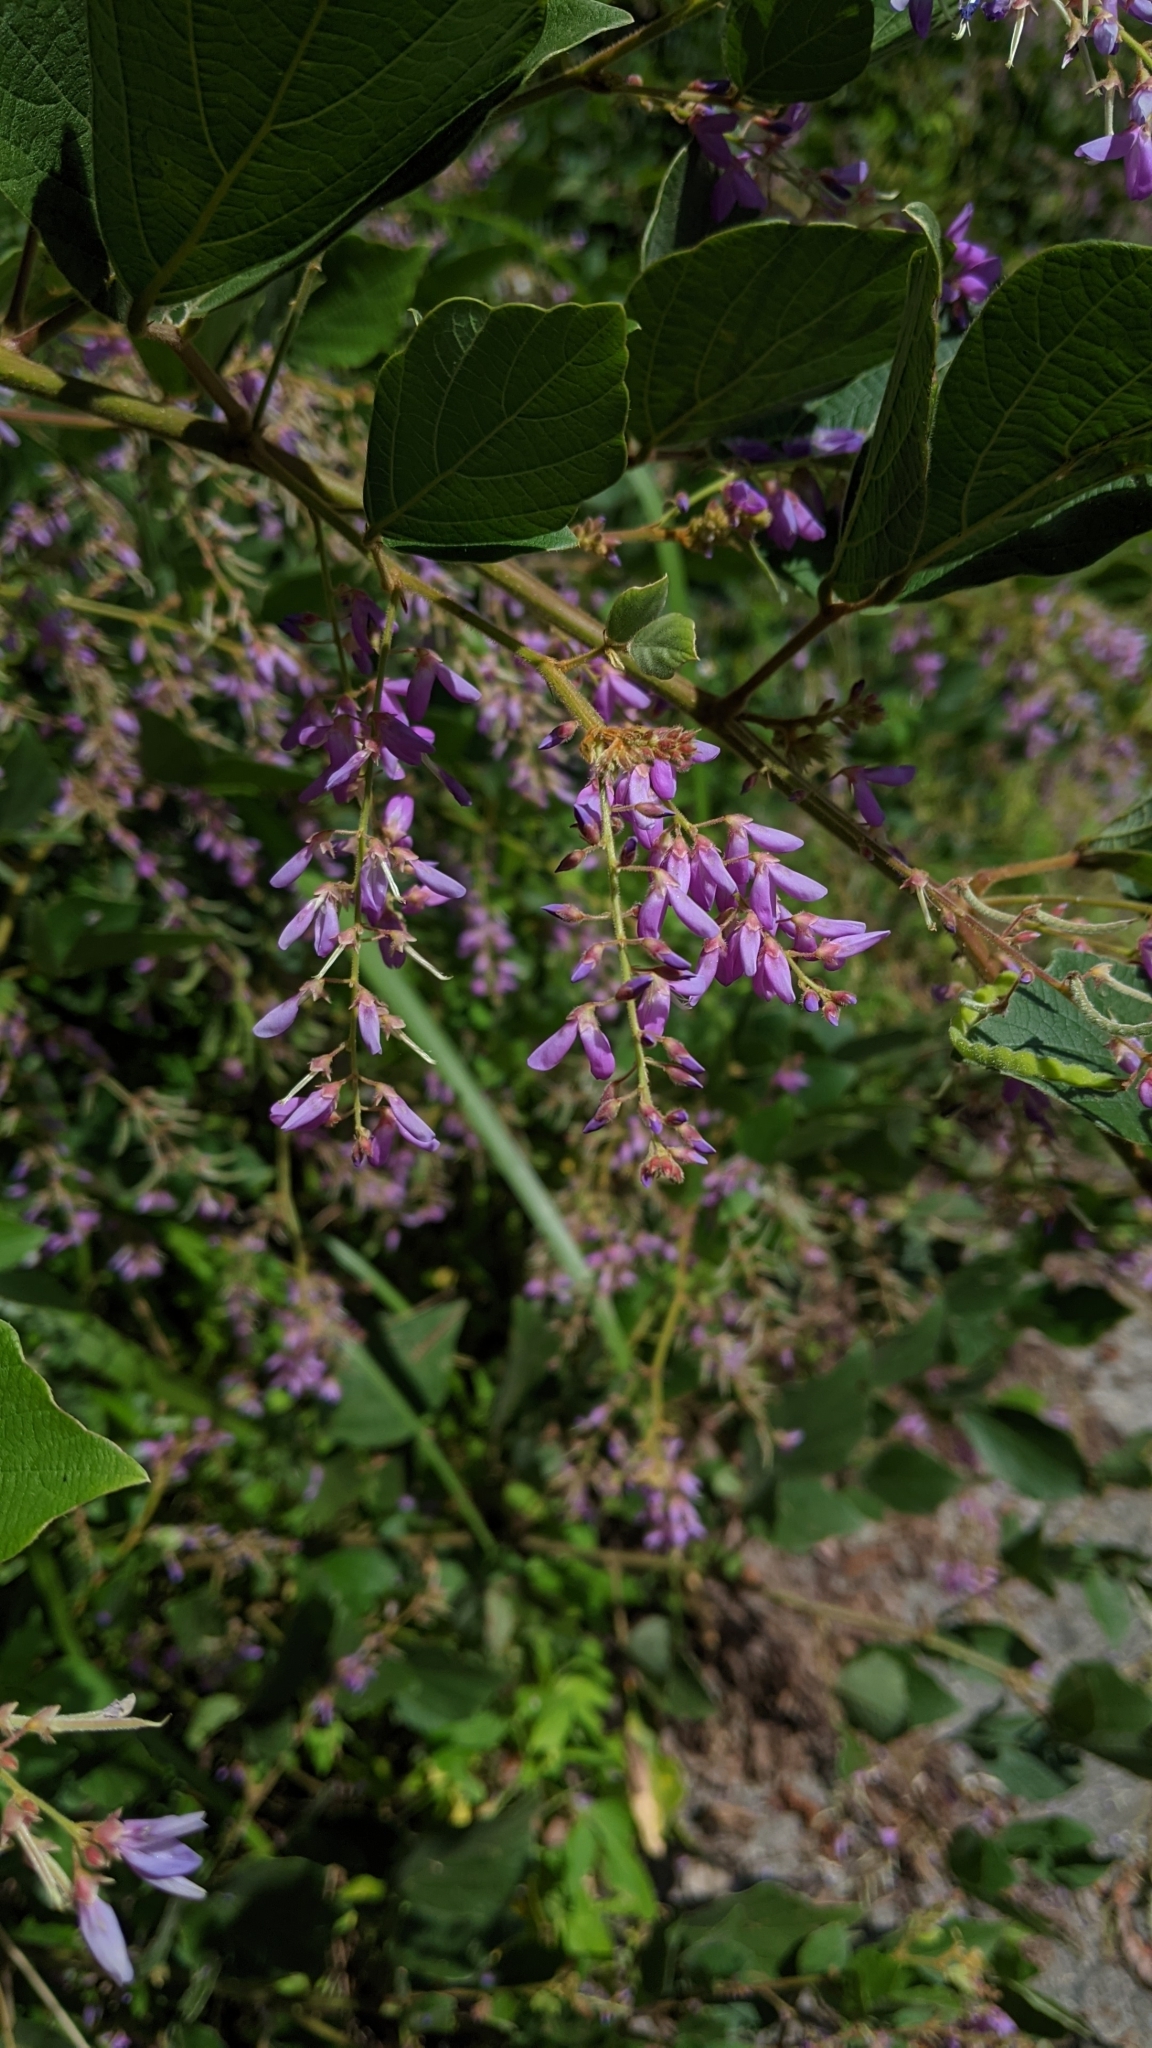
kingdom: Plantae
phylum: Tracheophyta
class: Magnoliopsida
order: Fabales
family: Fabaceae
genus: Puhuaea
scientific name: Puhuaea sequax
